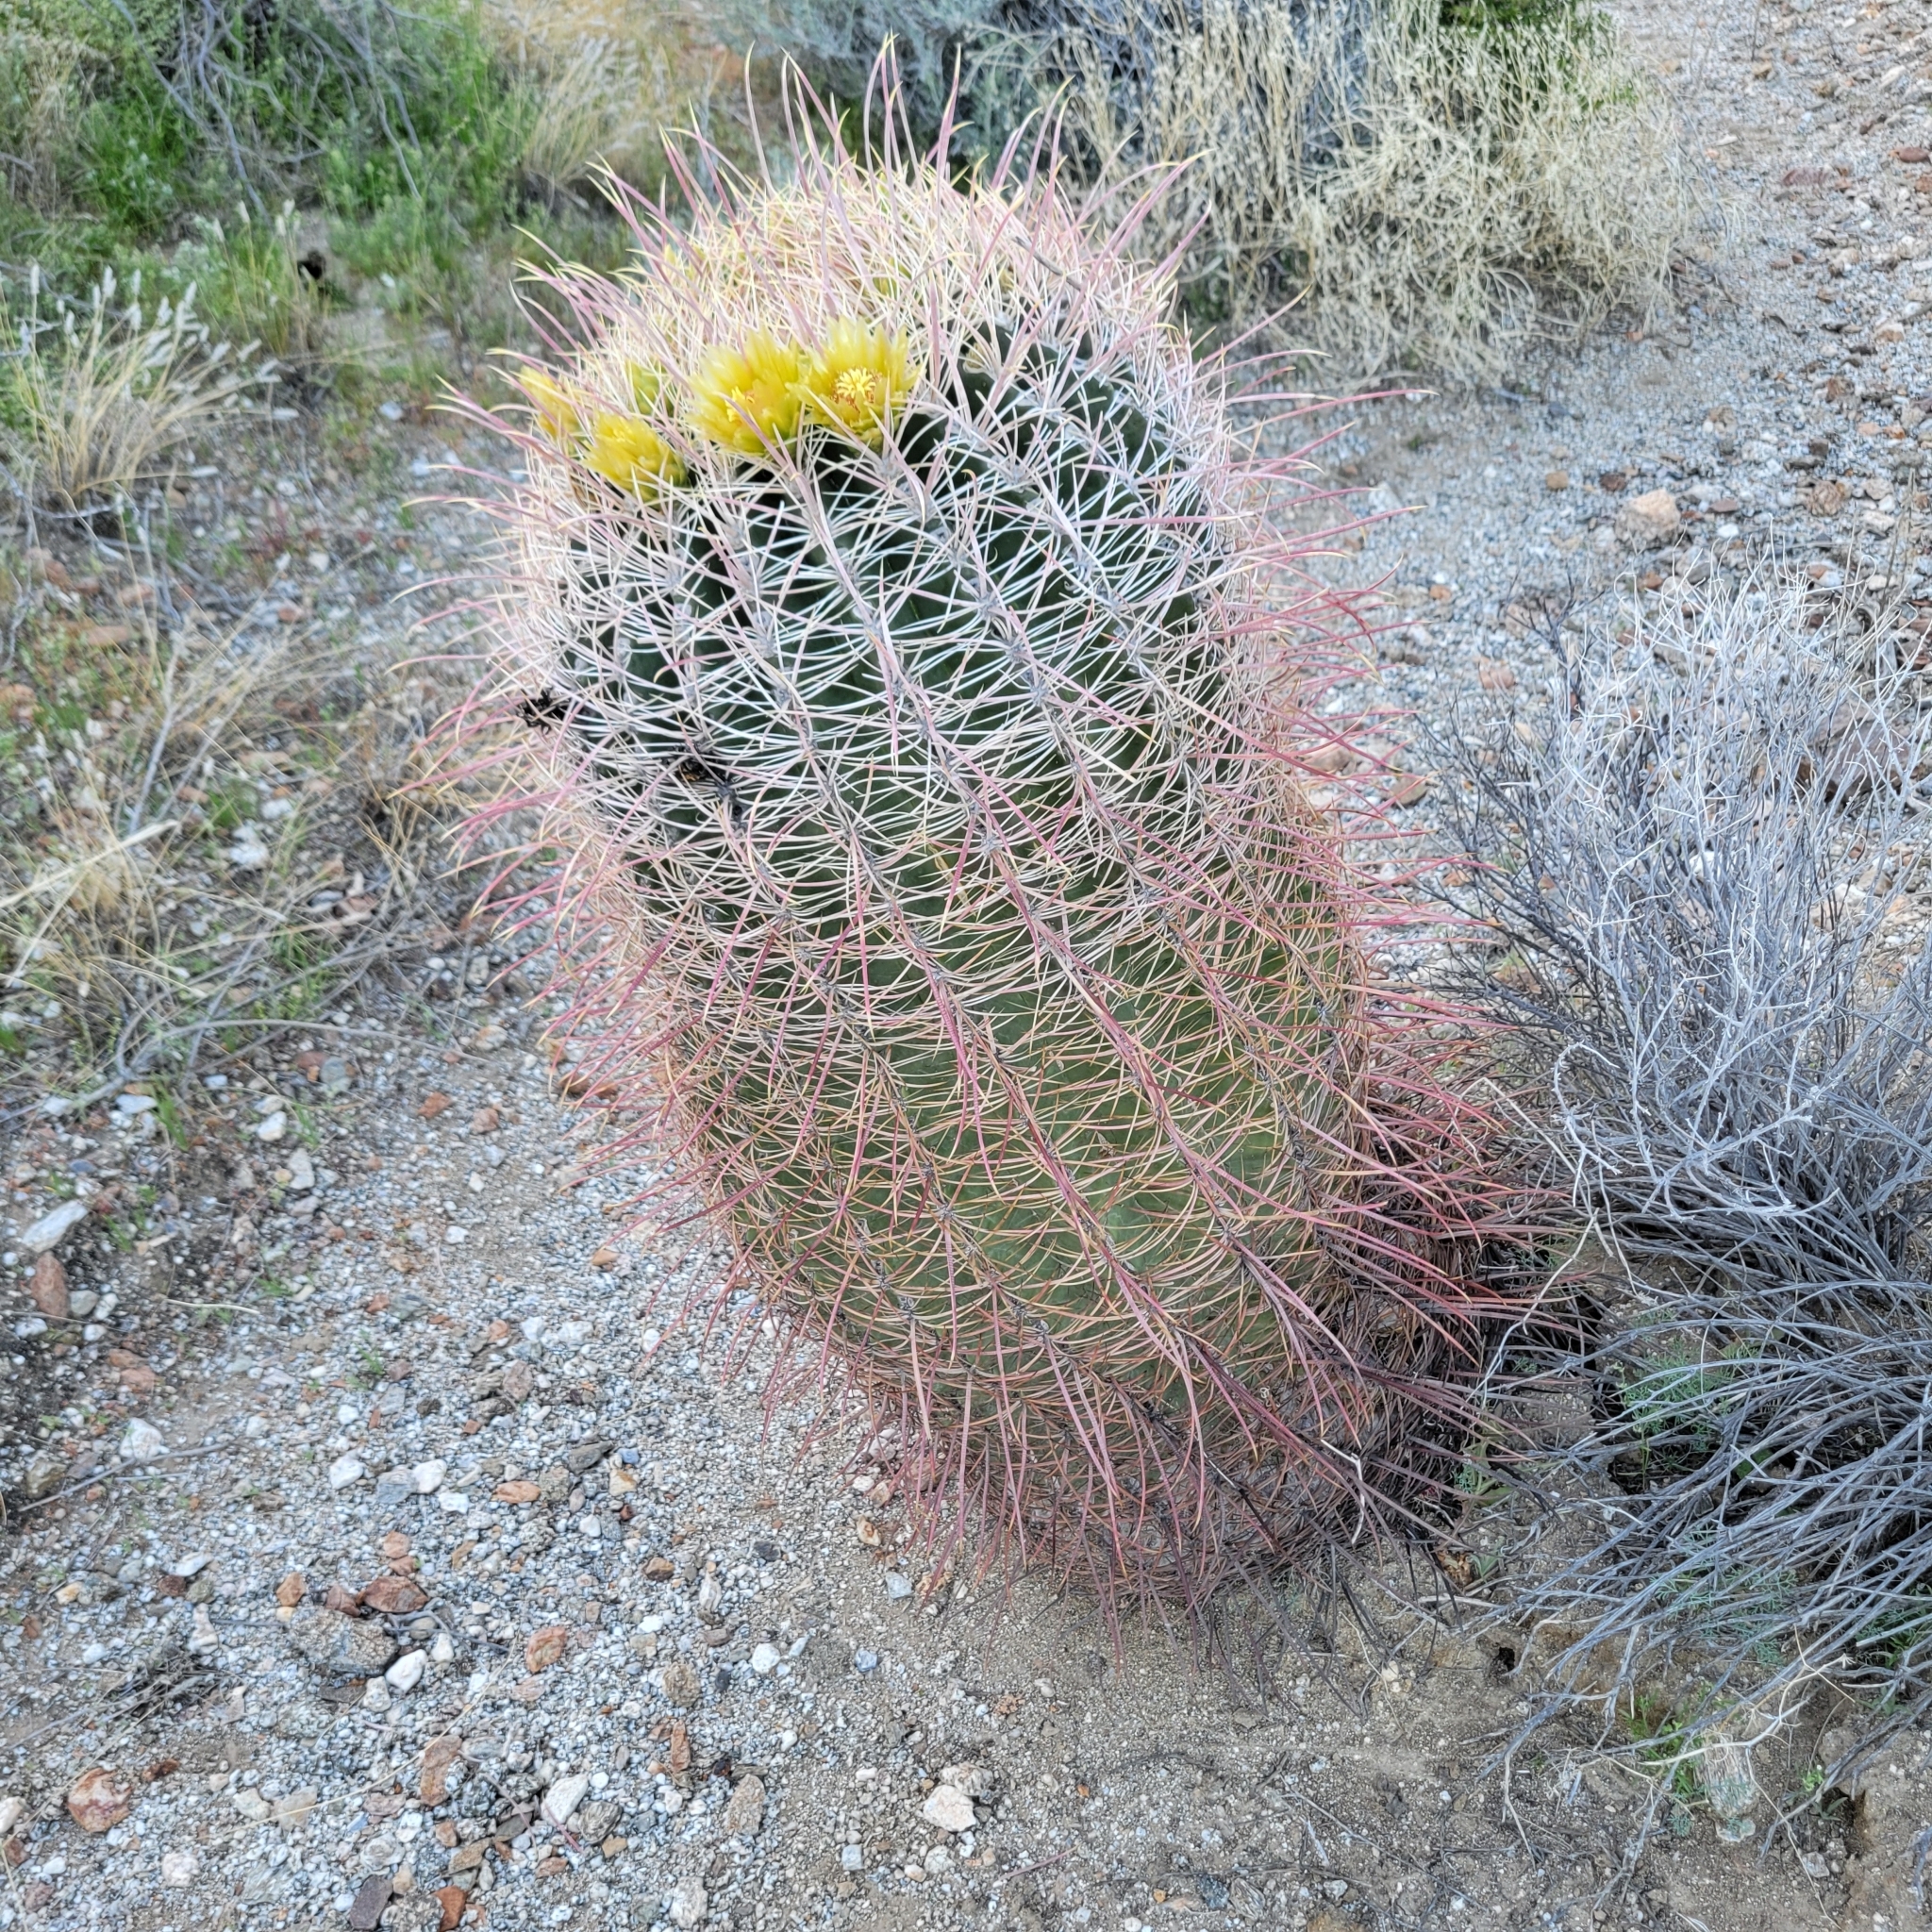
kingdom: Plantae
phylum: Tracheophyta
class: Magnoliopsida
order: Caryophyllales
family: Cactaceae
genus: Ferocactus
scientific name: Ferocactus cylindraceus
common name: California barrel cactus
